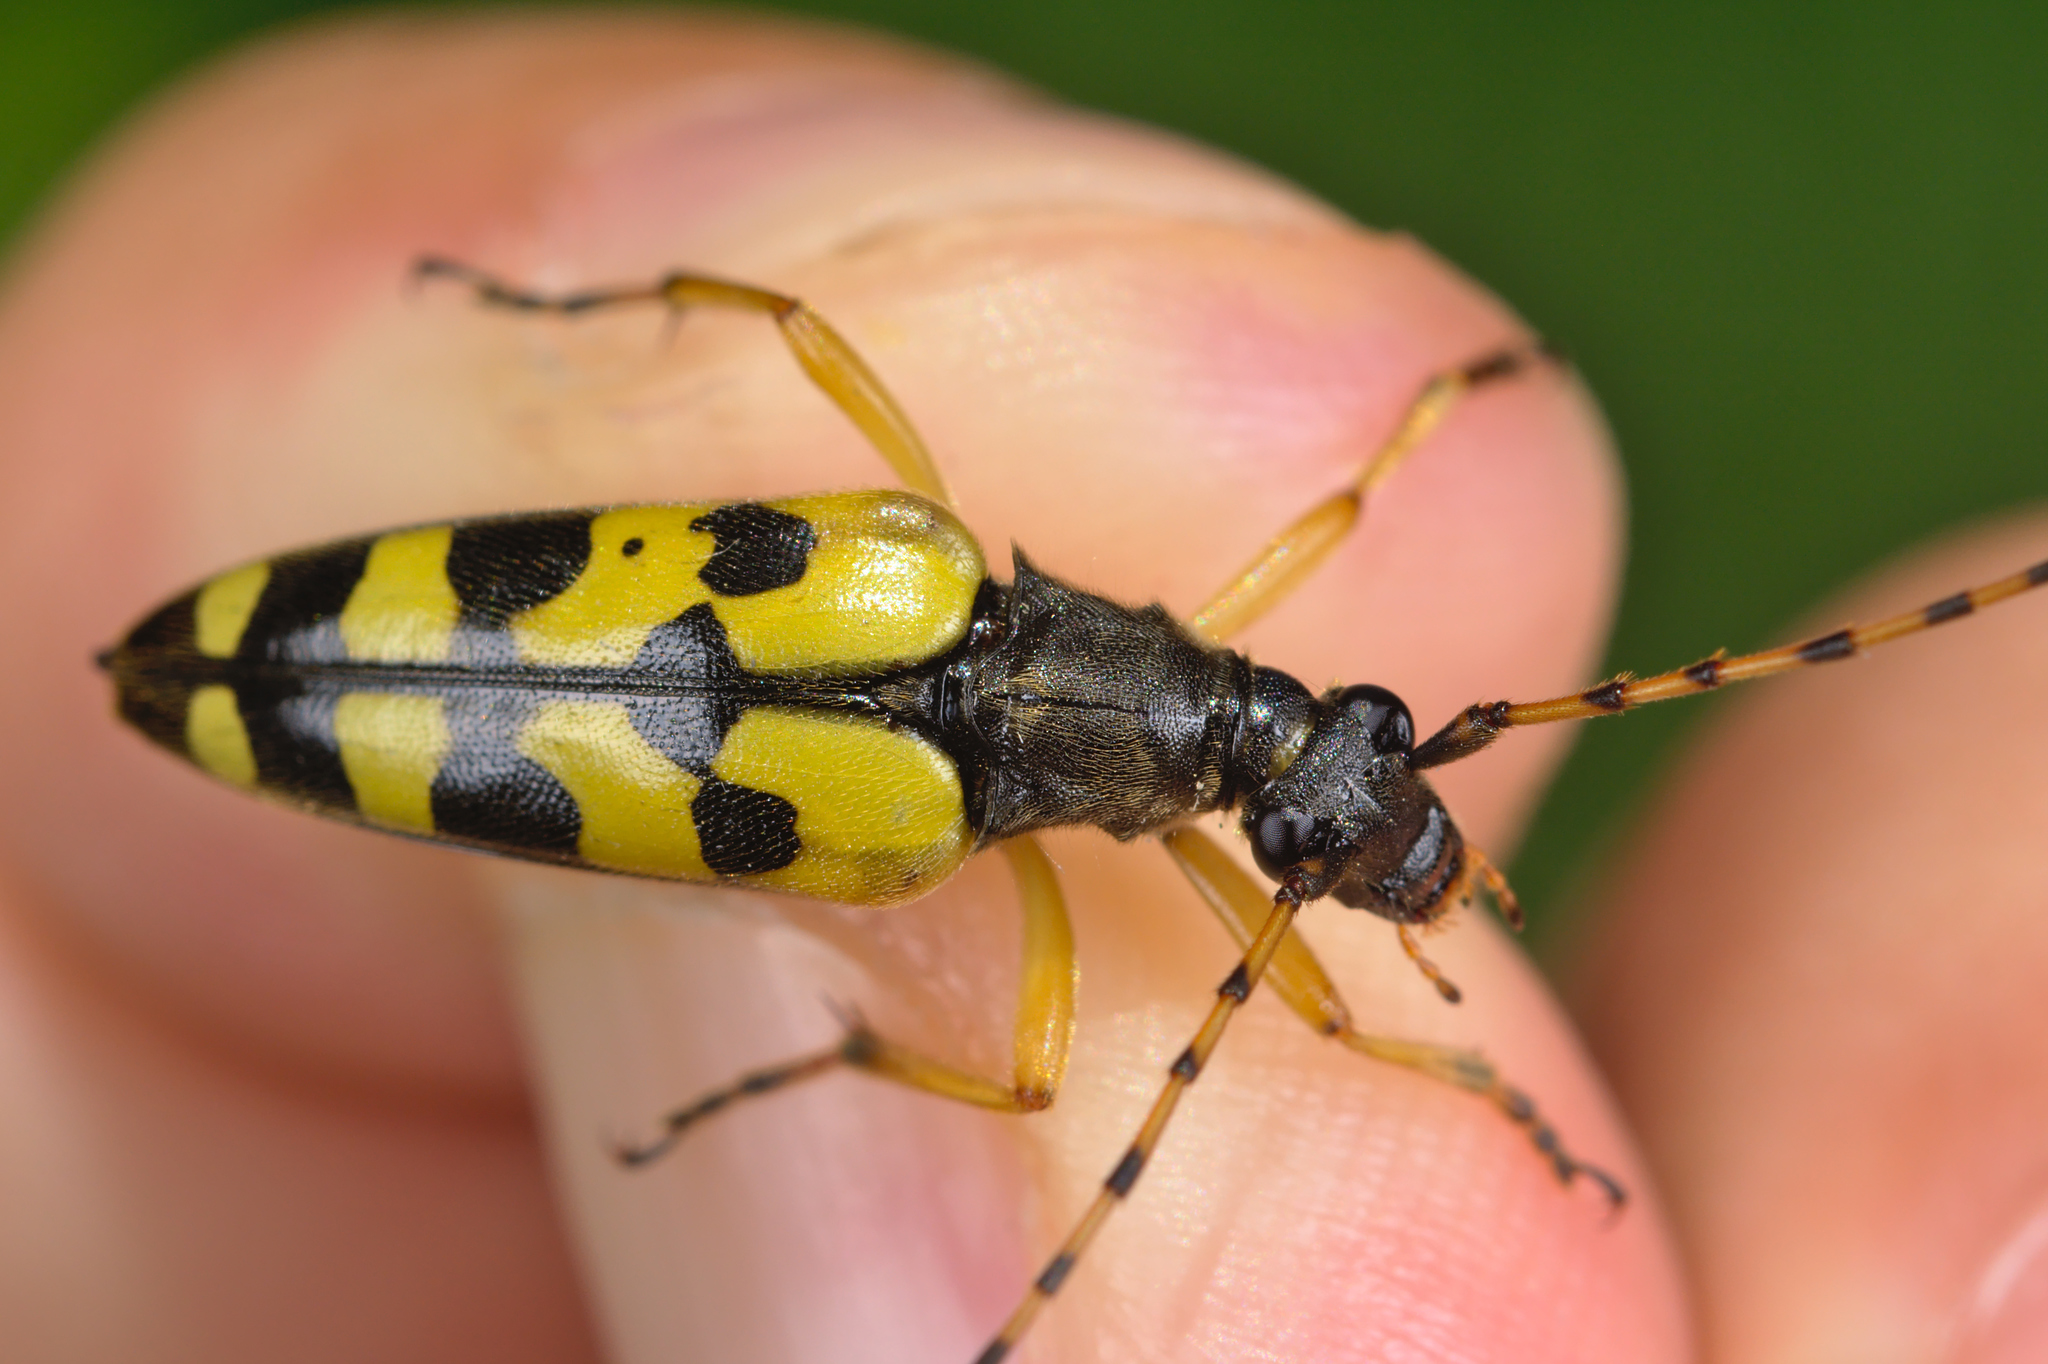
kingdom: Animalia
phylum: Arthropoda
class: Insecta
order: Coleoptera
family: Cerambycidae
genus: Rutpela
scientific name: Rutpela maculata
